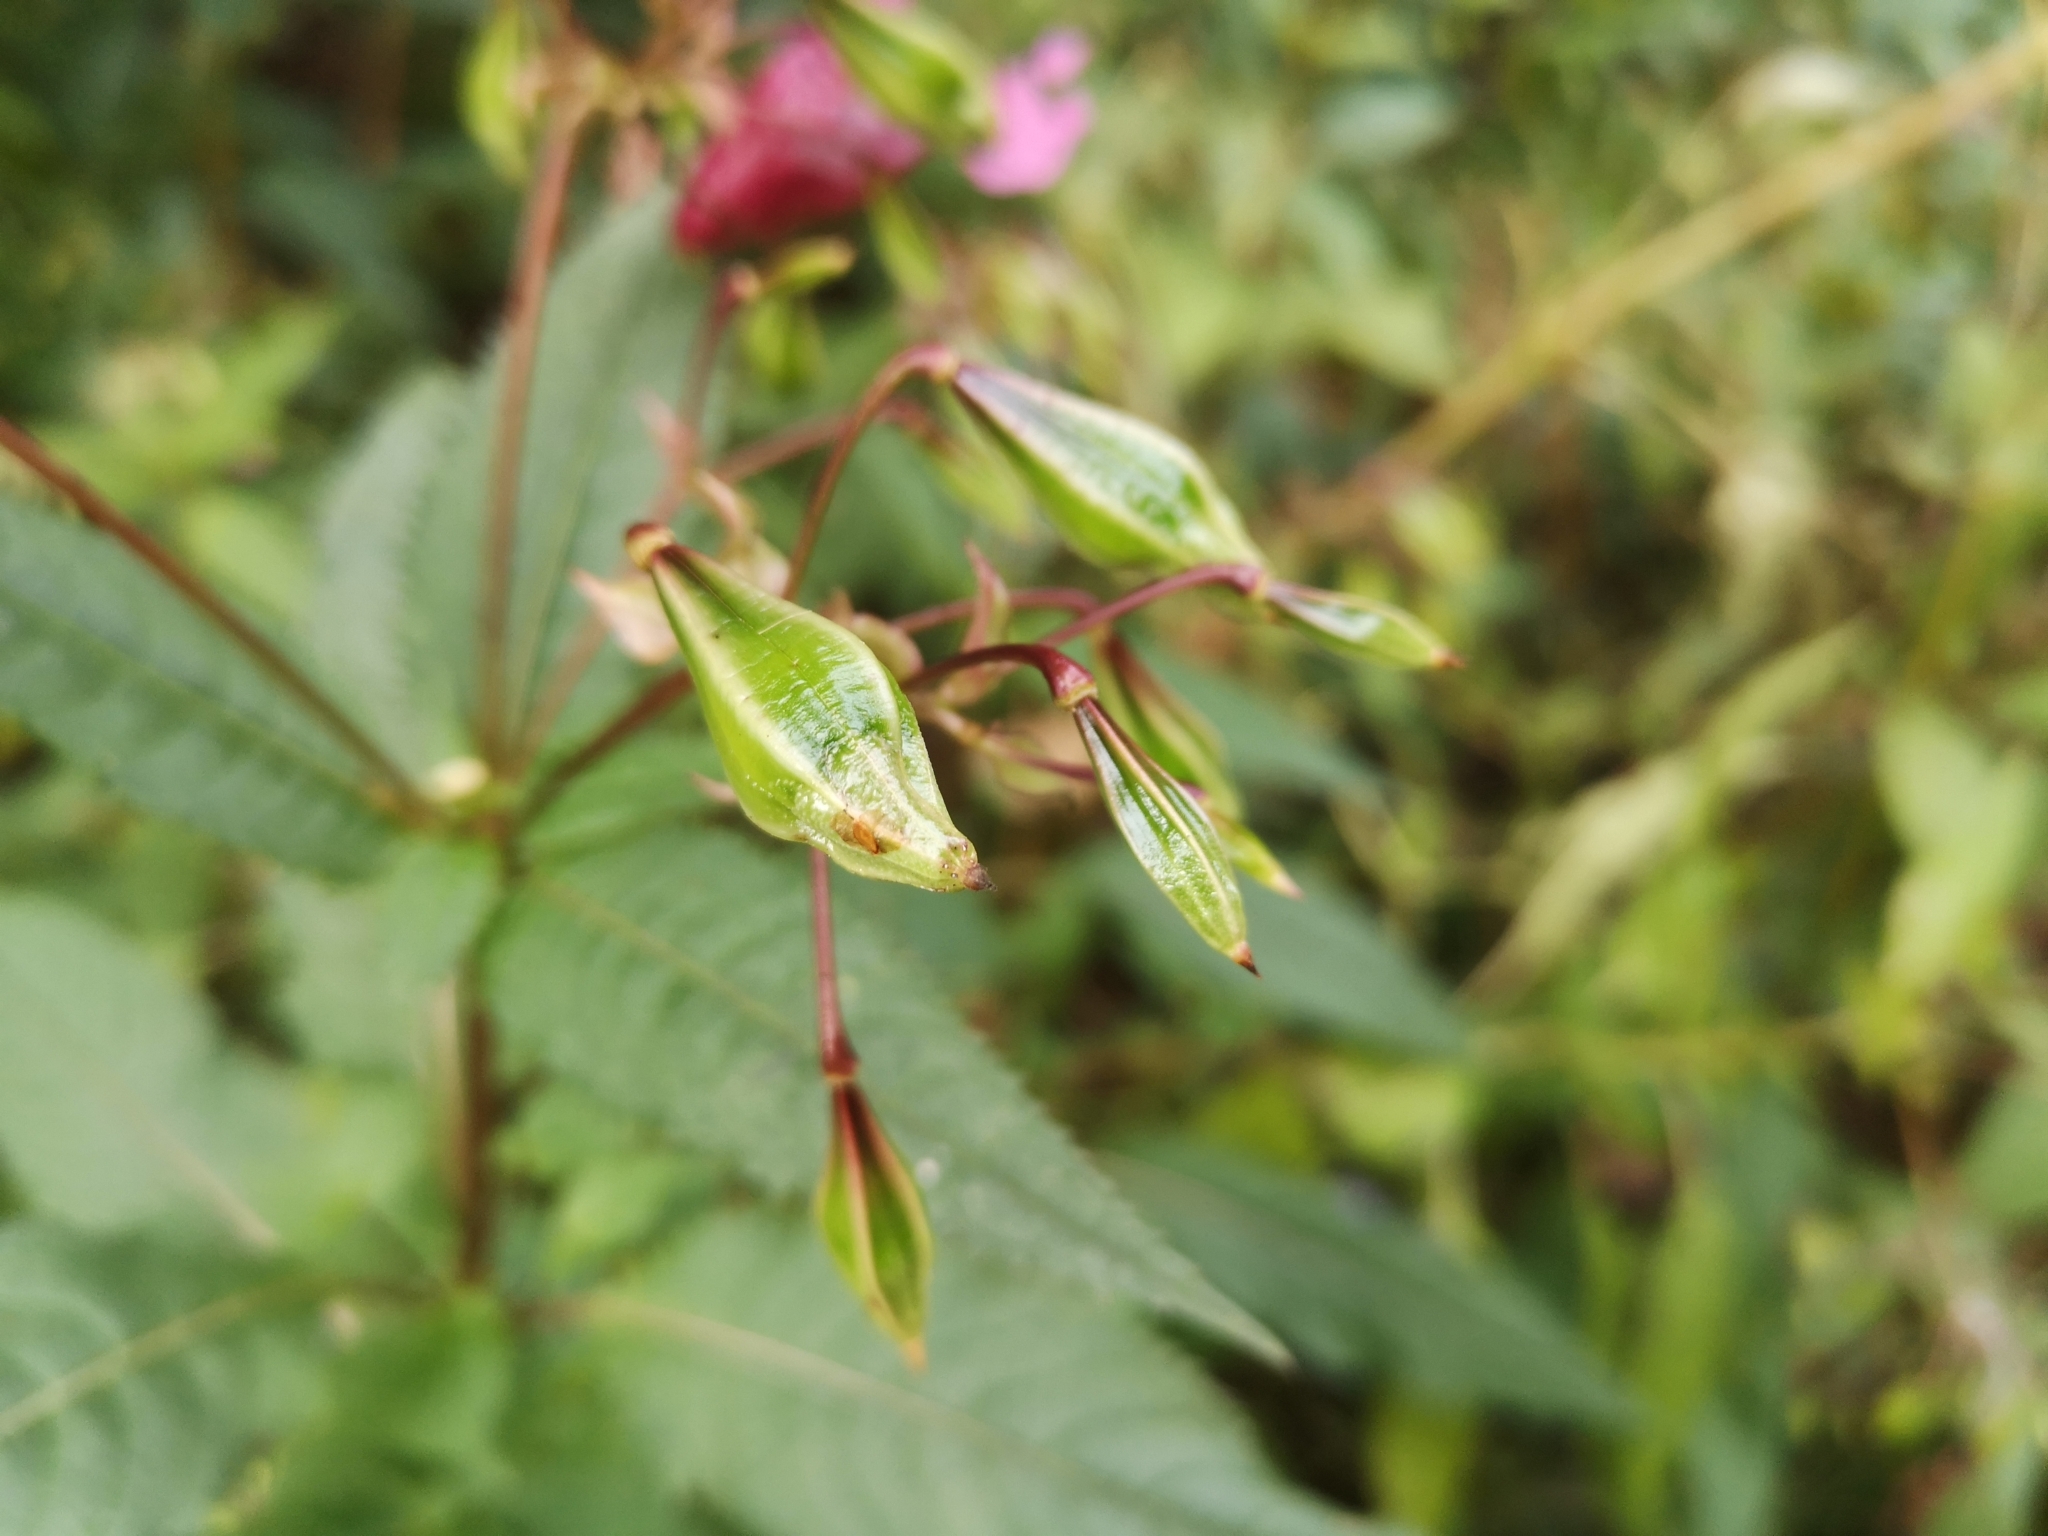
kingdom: Plantae
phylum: Tracheophyta
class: Magnoliopsida
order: Ericales
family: Balsaminaceae
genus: Impatiens
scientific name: Impatiens glandulifera
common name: Himalayan balsam
